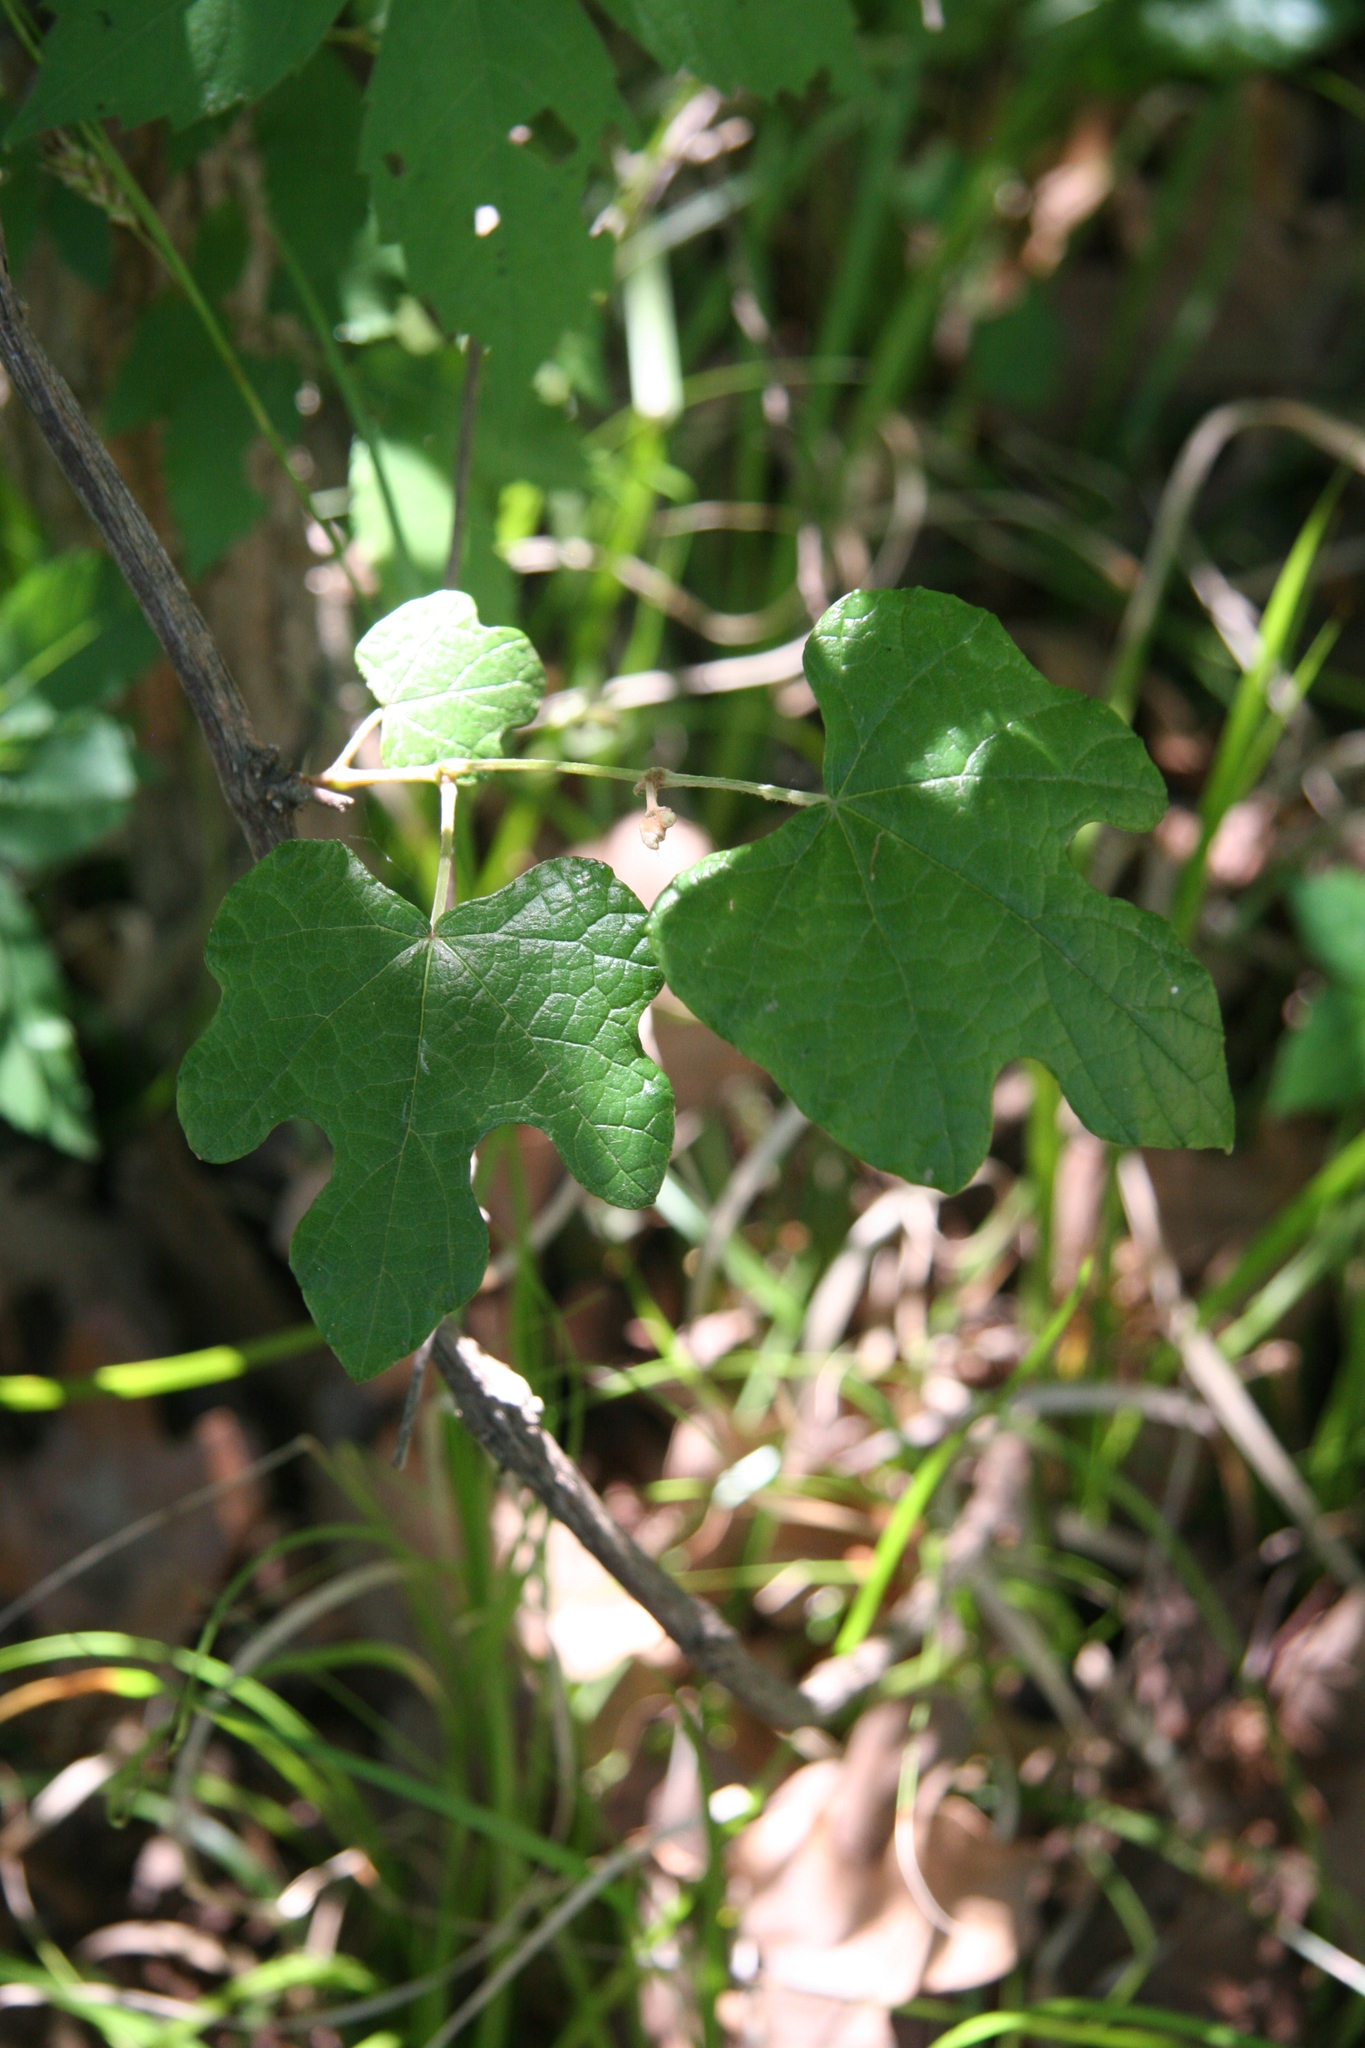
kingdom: Plantae
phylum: Tracheophyta
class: Magnoliopsida
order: Vitales
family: Vitaceae
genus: Vitis
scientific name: Vitis mustangensis
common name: Mustang grape
